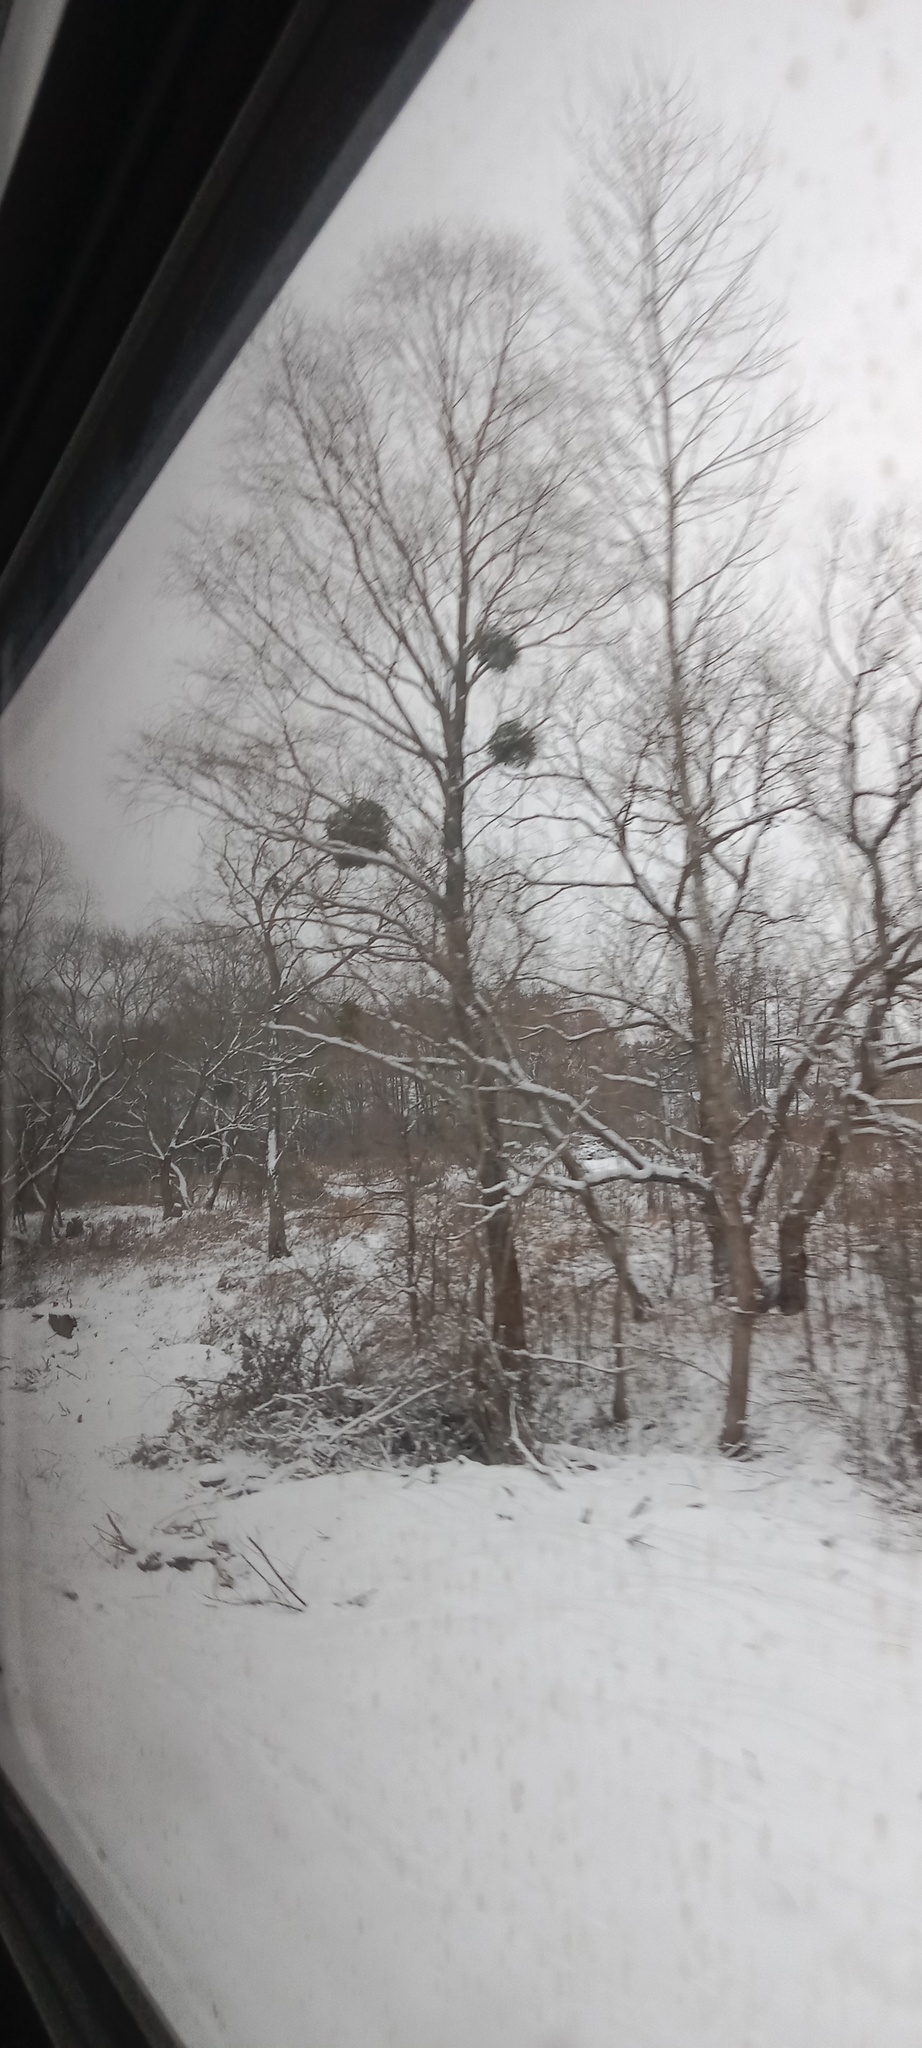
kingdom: Plantae
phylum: Tracheophyta
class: Magnoliopsida
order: Santalales
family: Viscaceae
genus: Viscum
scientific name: Viscum album
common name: Mistletoe
